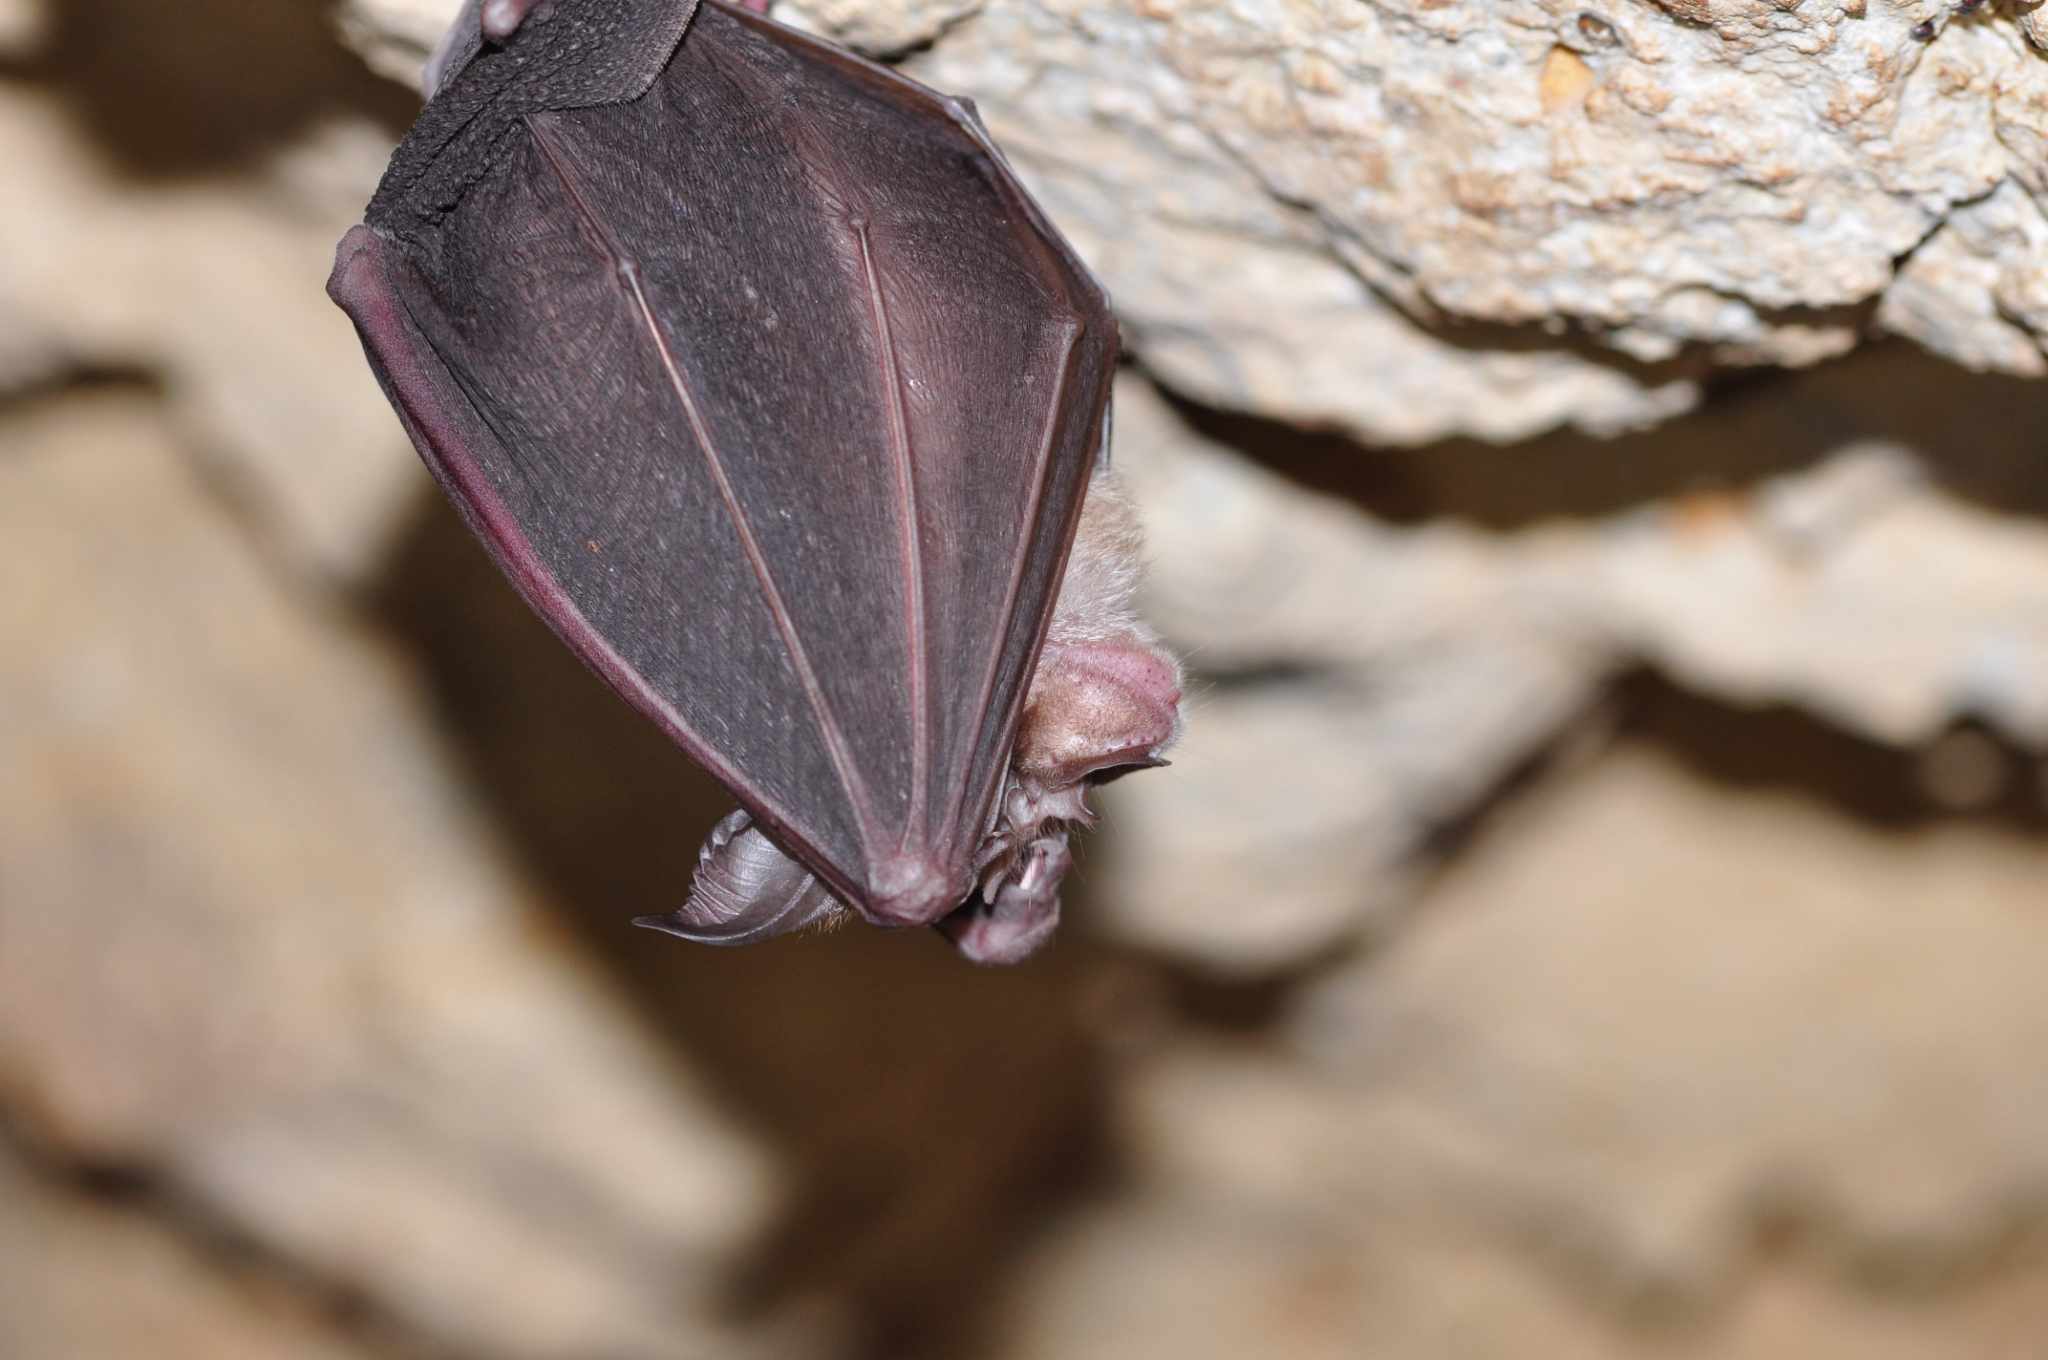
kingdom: Animalia
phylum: Chordata
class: Mammalia
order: Chiroptera
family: Rhinolophidae
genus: Rhinolophus
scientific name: Rhinolophus ferrumequinum
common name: Greater horseshoe bat
